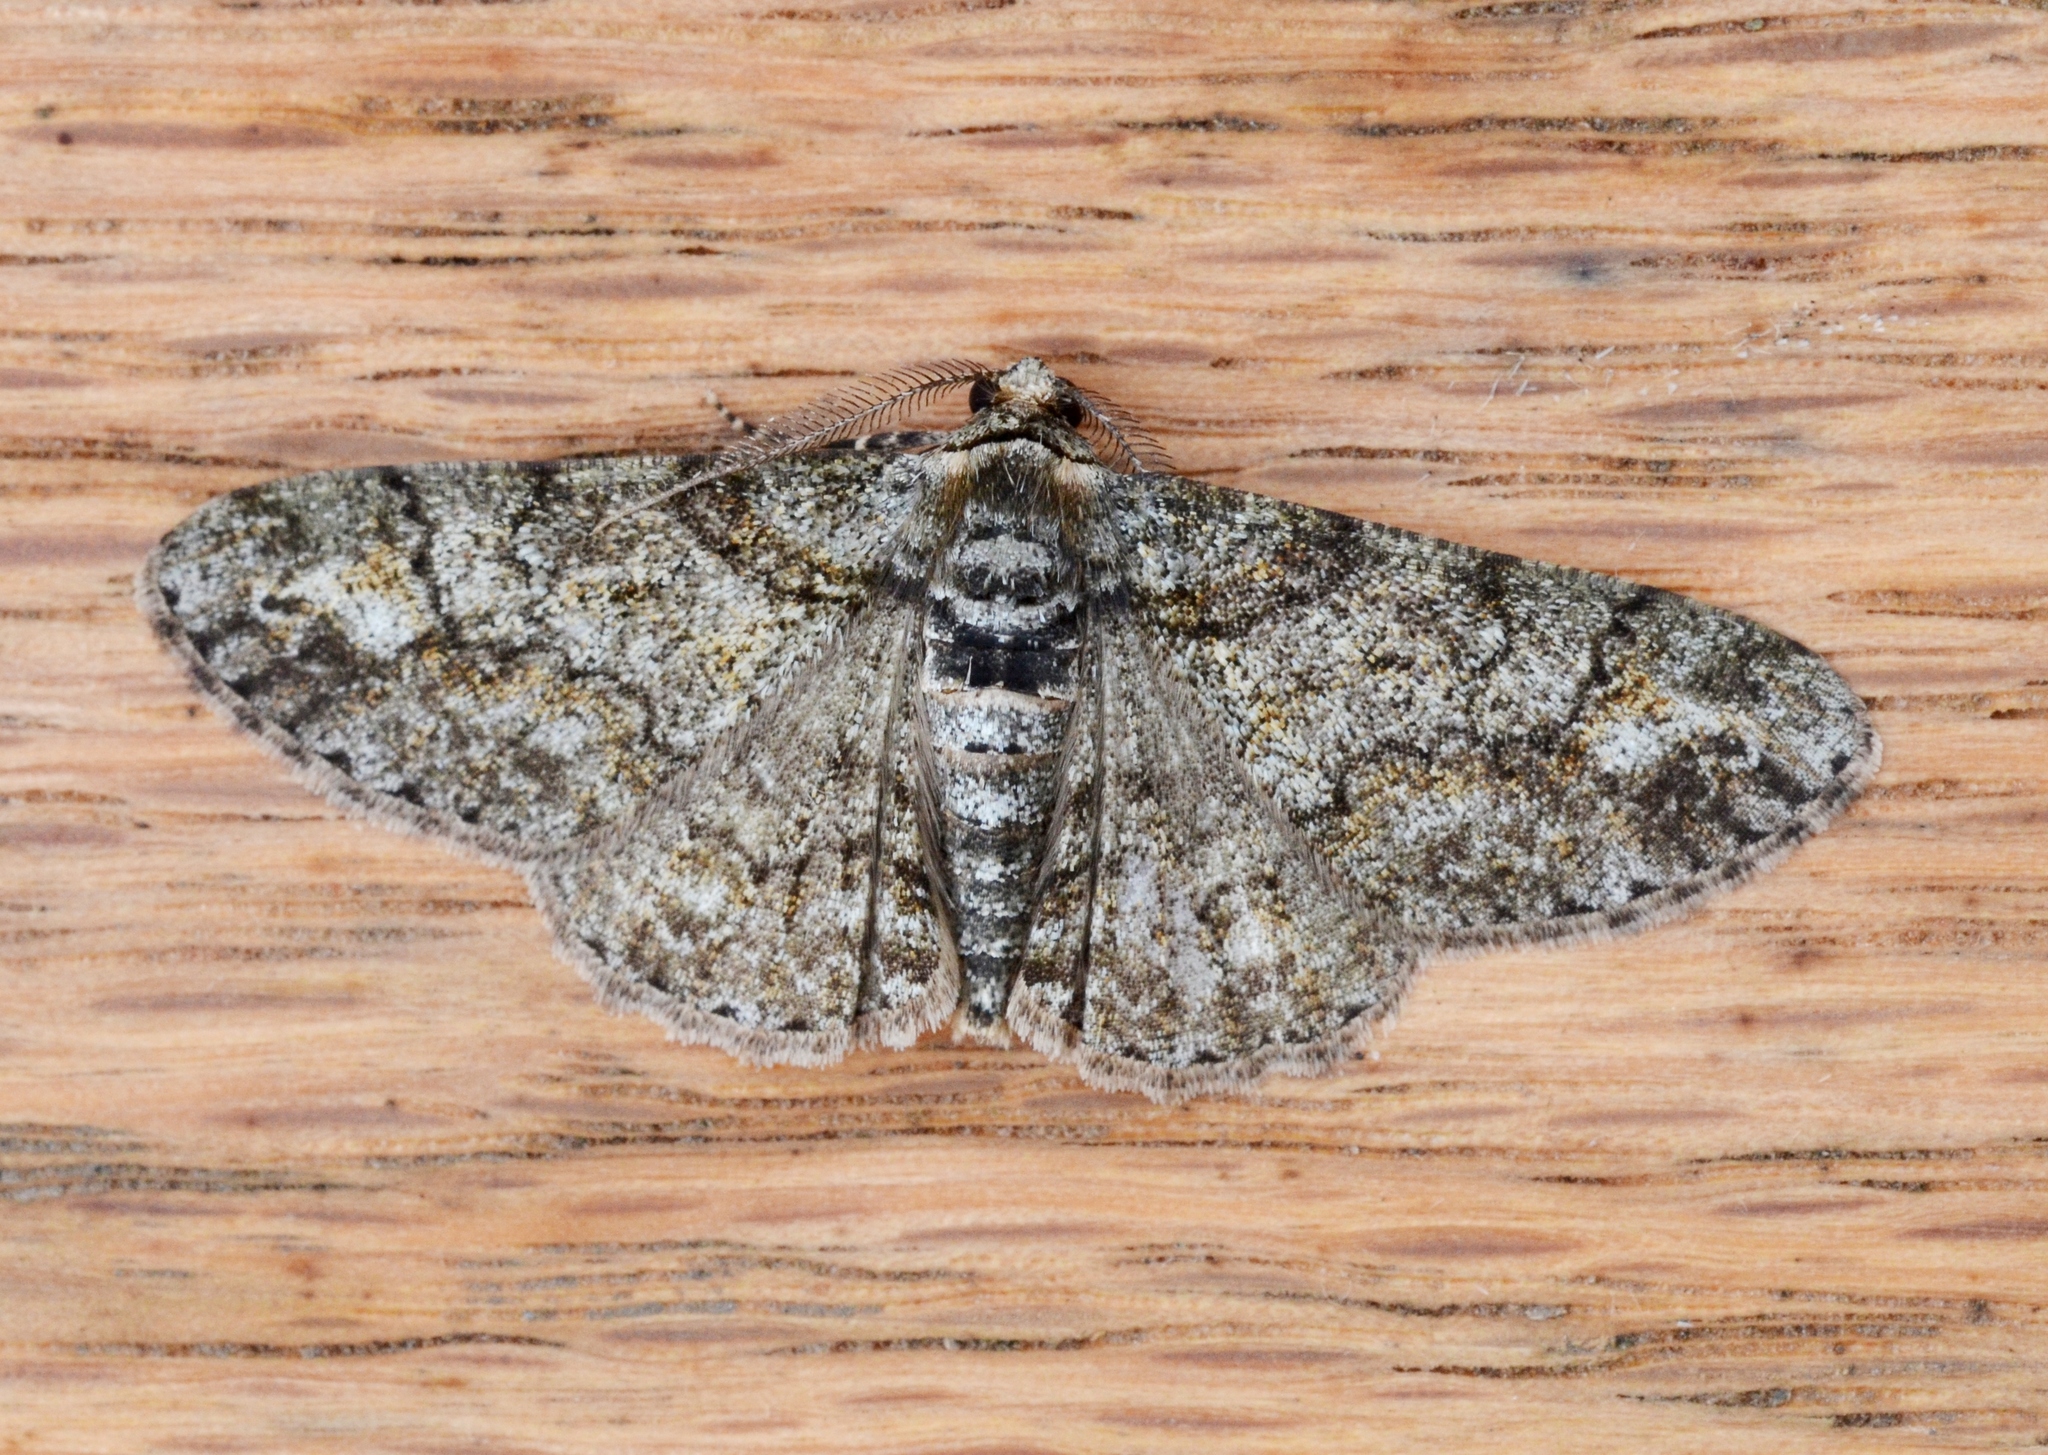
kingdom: Animalia
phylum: Arthropoda
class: Insecta
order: Lepidoptera
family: Geometridae
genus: Cleora
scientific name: Cleora sublunaria
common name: Double-lined gray
